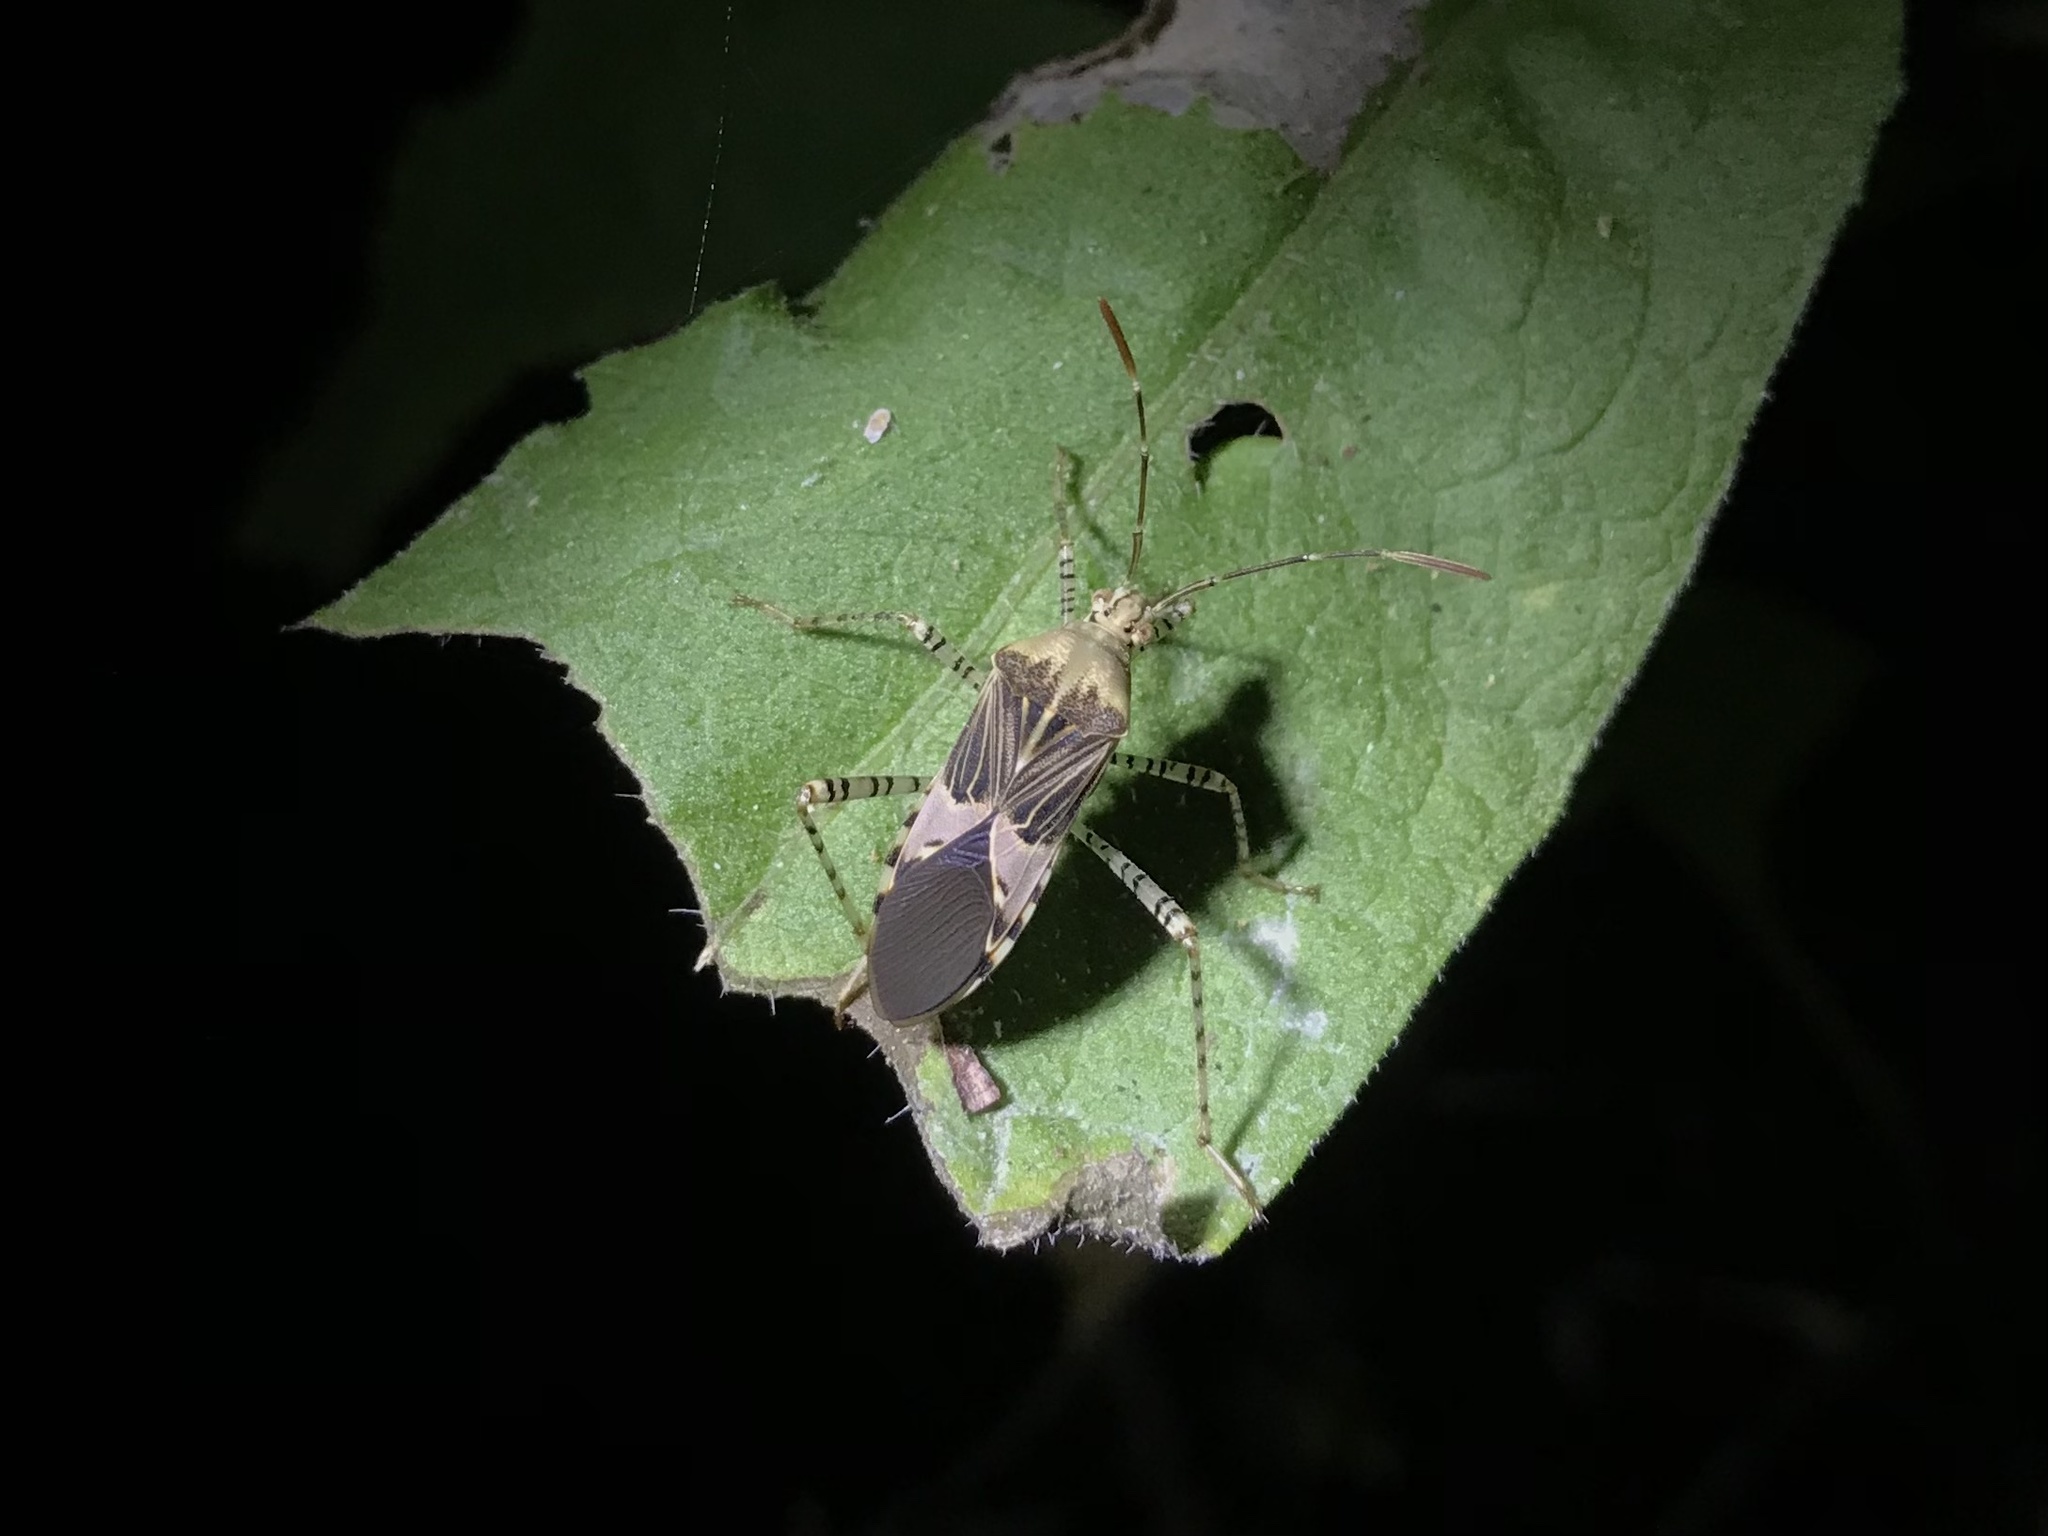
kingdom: Animalia
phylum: Arthropoda
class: Insecta
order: Hemiptera
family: Coreidae
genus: Hypselonotus
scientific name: Hypselonotus punctiventris
